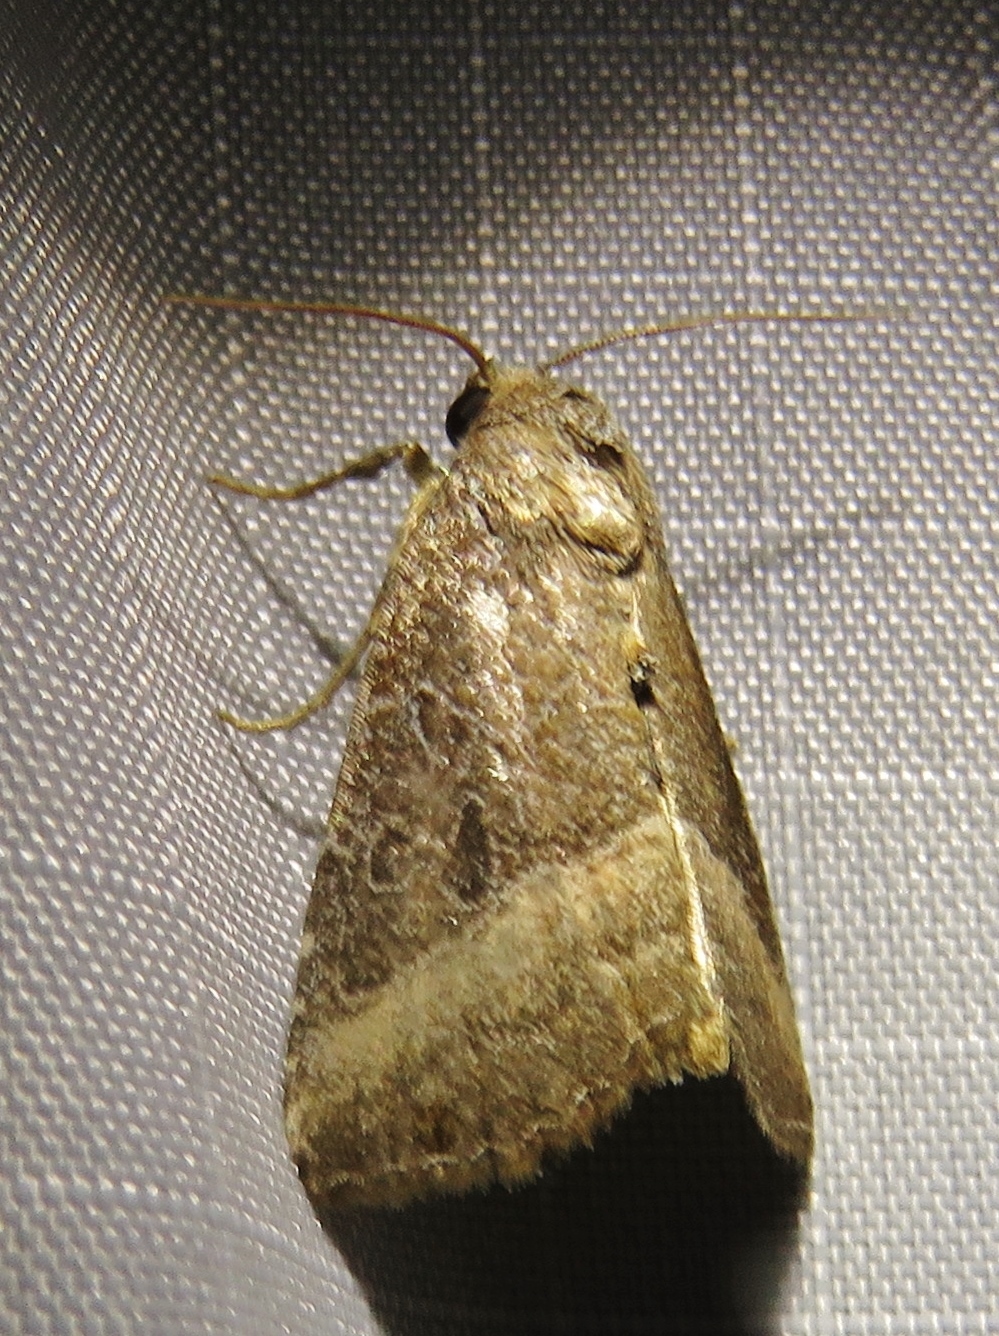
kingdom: Animalia
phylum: Arthropoda
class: Insecta
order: Lepidoptera
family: Noctuidae
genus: Ogdoconta
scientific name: Ogdoconta cinereola
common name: Common pinkband
